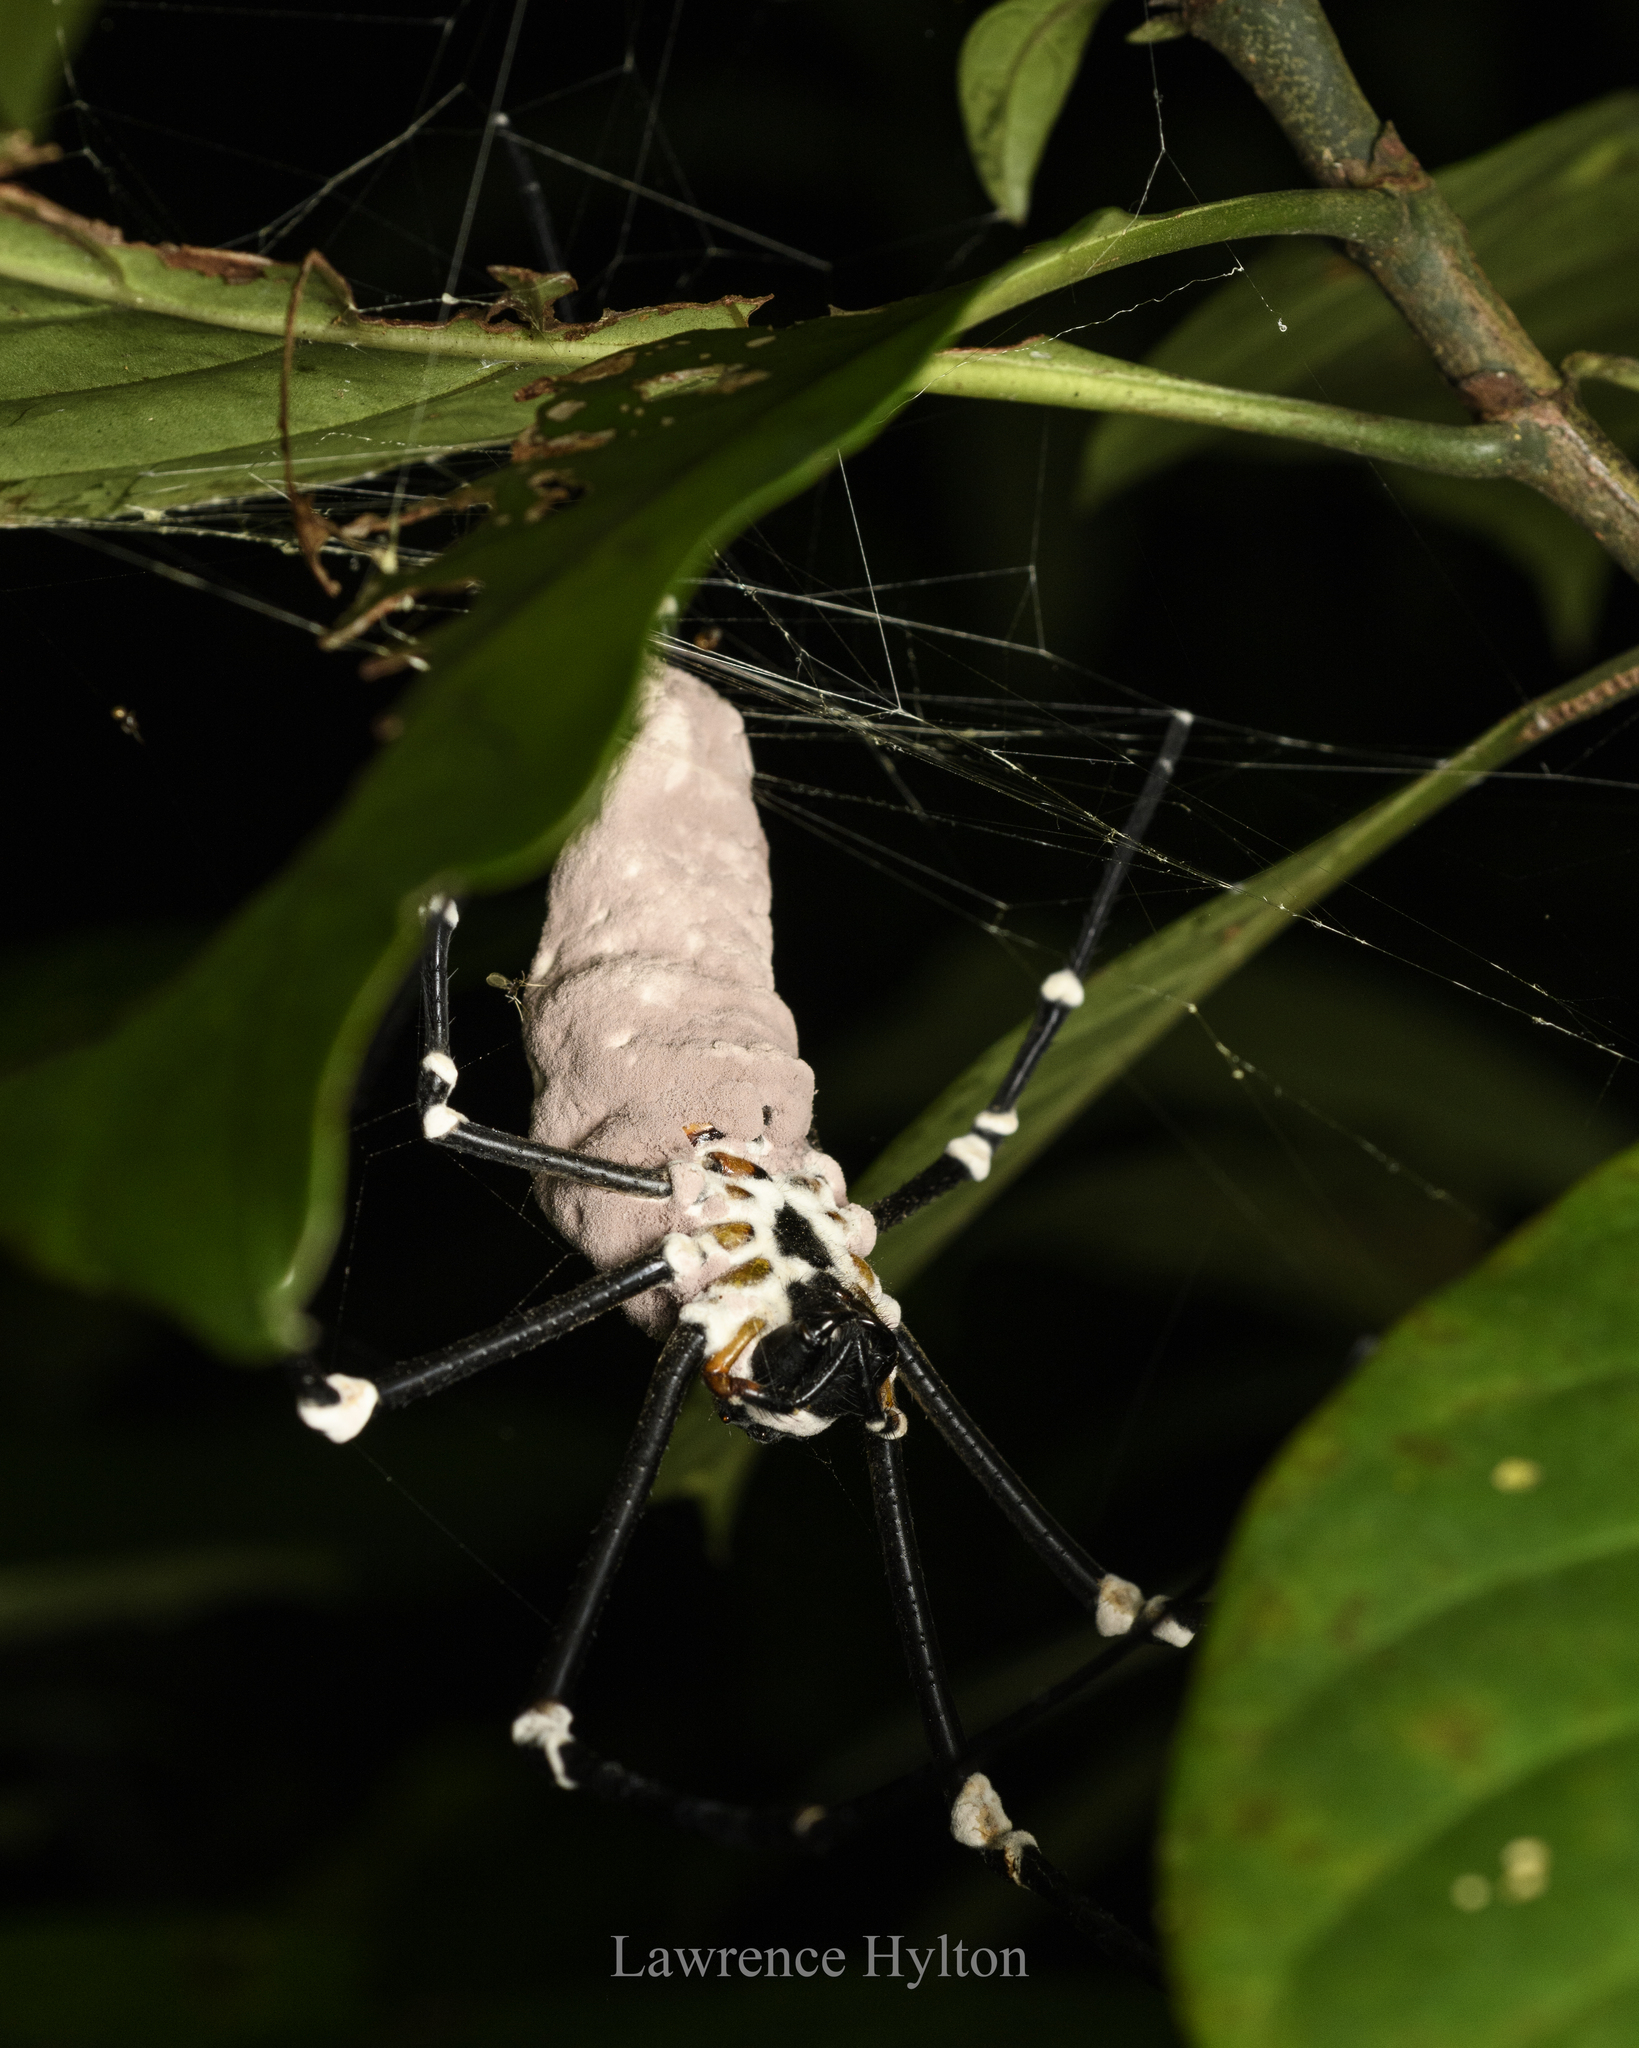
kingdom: Fungi
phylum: Ascomycota
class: Sordariomycetes
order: Hypocreales
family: Ophiocordycipitaceae
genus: Purpureocillium
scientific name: Purpureocillium atypicola
